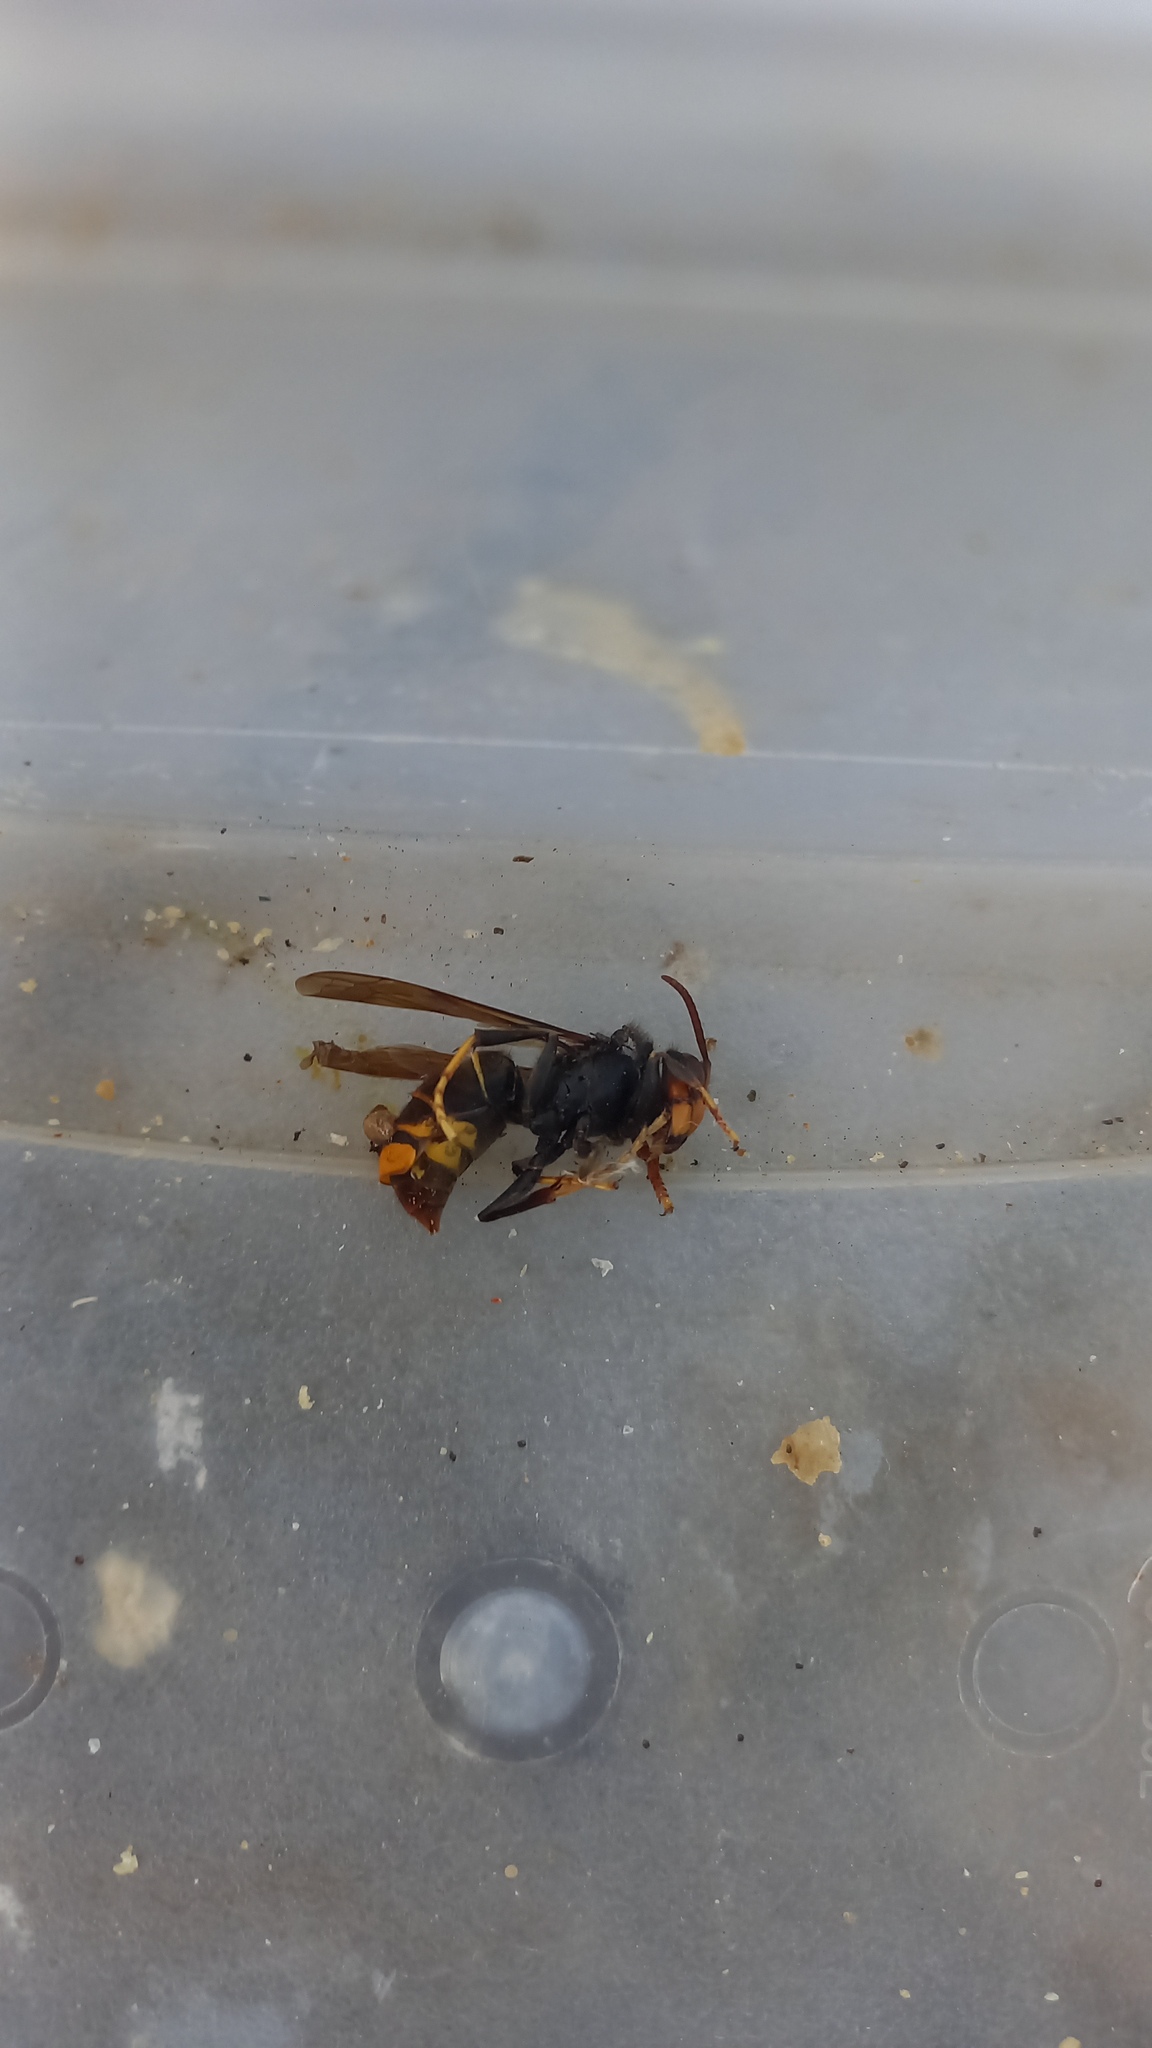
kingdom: Animalia
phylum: Arthropoda
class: Insecta
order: Hymenoptera
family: Vespidae
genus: Vespa
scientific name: Vespa velutina
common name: Asian hornet
